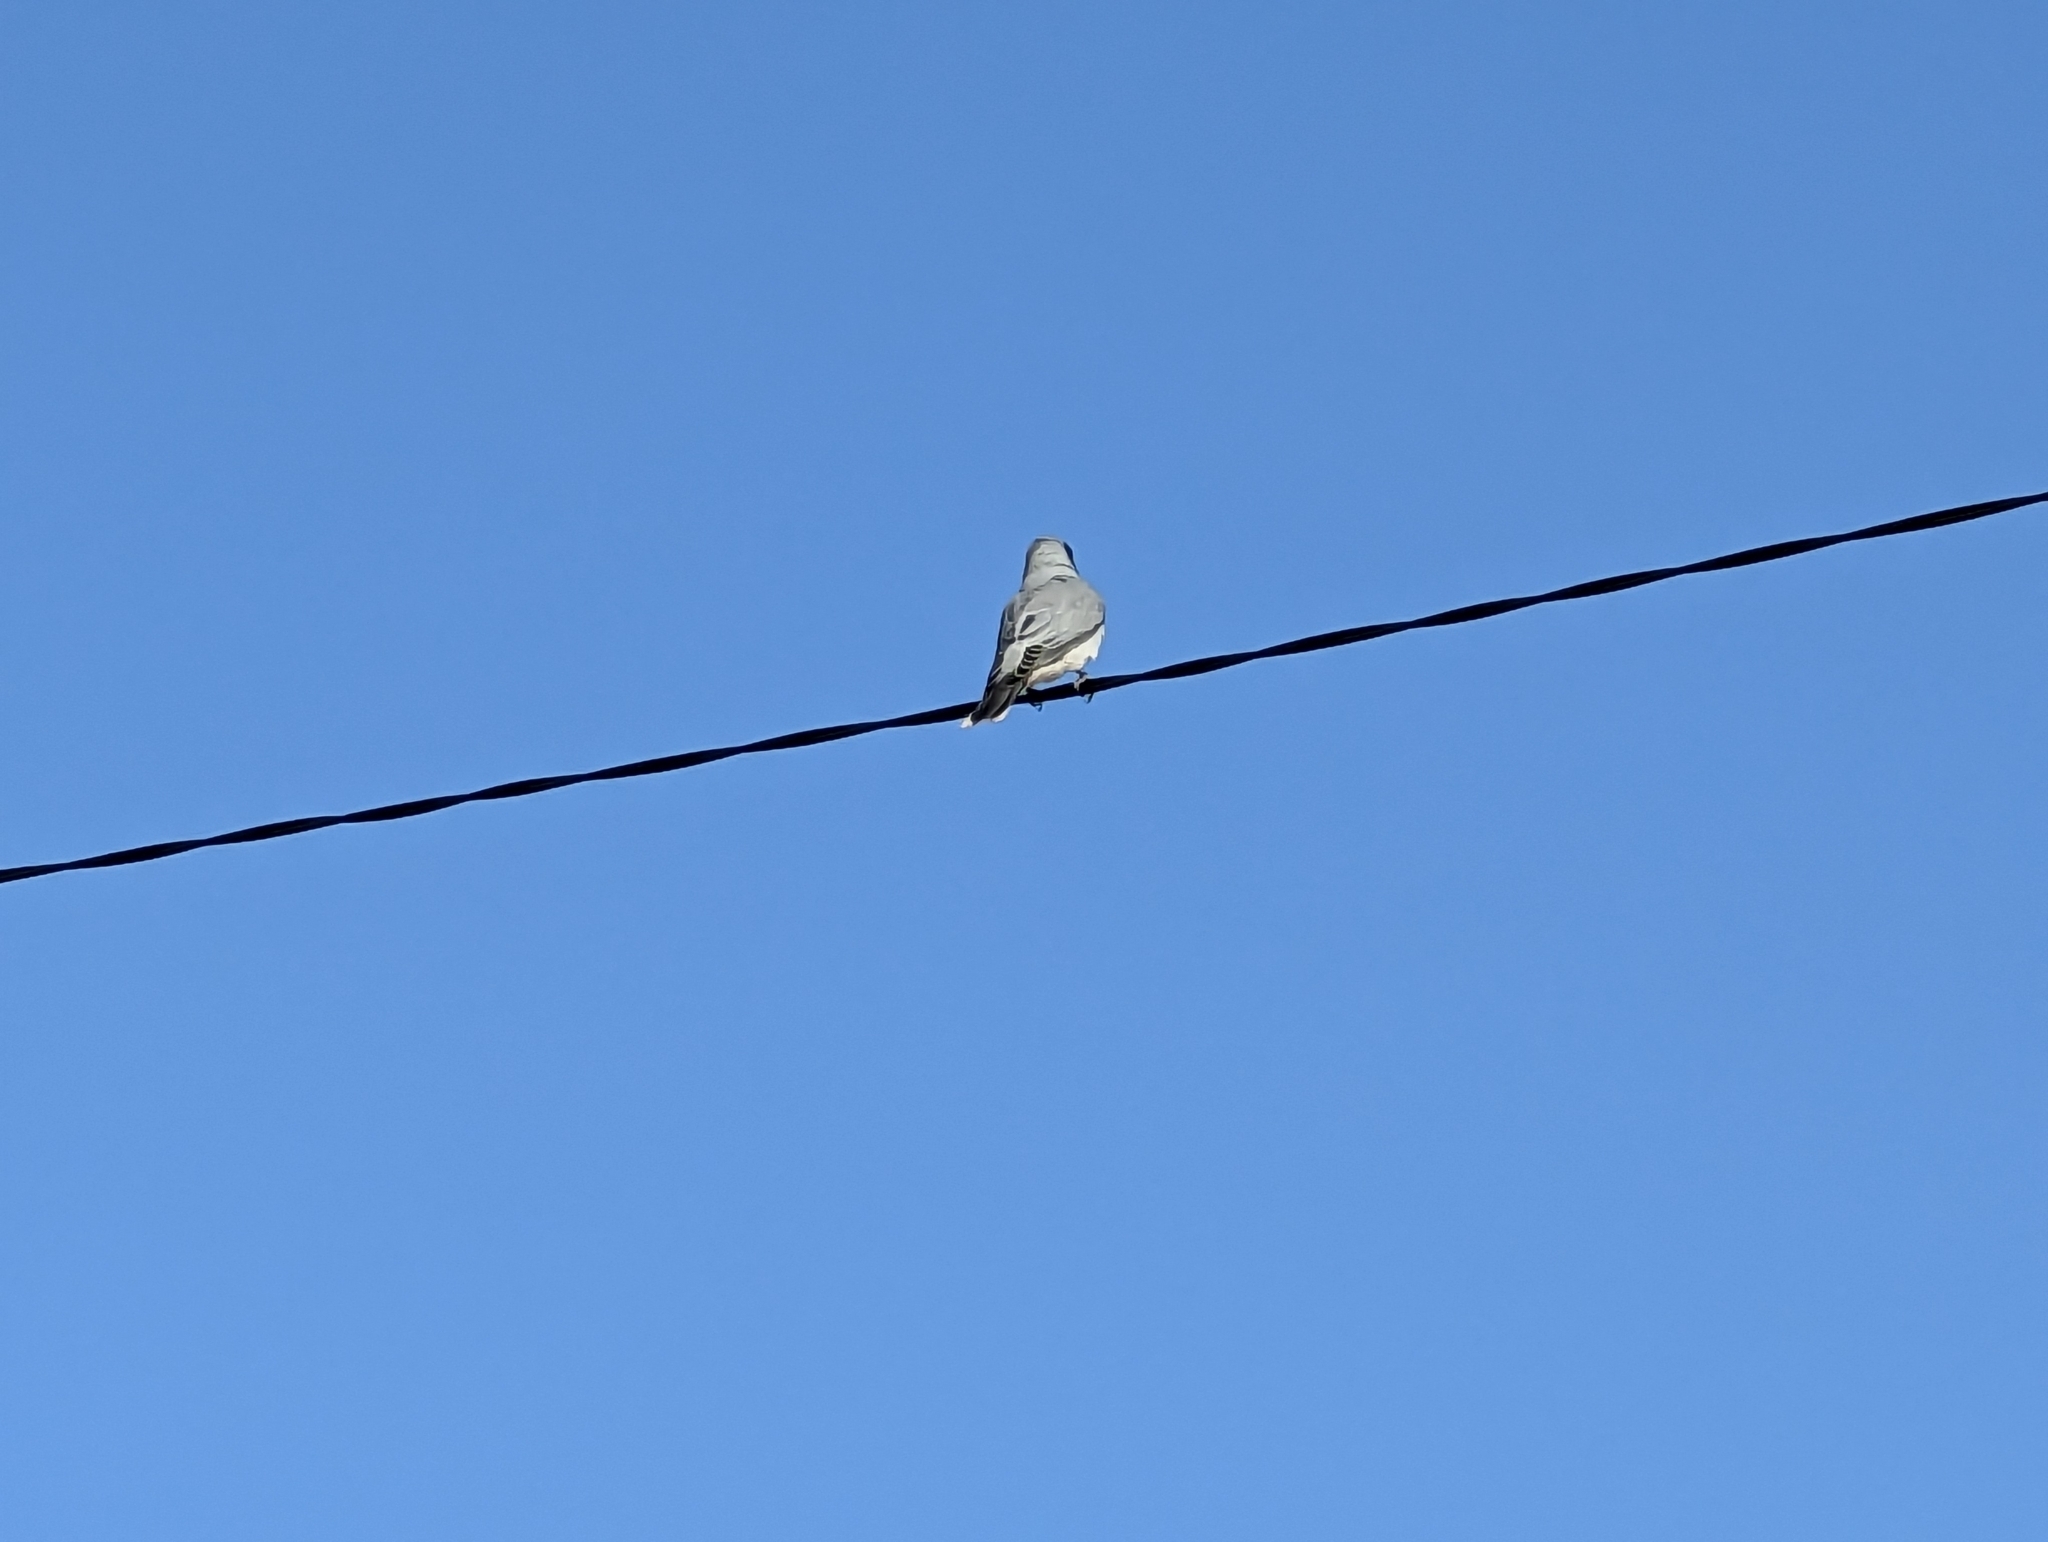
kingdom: Animalia
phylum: Chordata
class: Aves
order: Passeriformes
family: Campephagidae
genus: Coracina
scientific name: Coracina novaehollandiae
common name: Black-faced cuckooshrike
